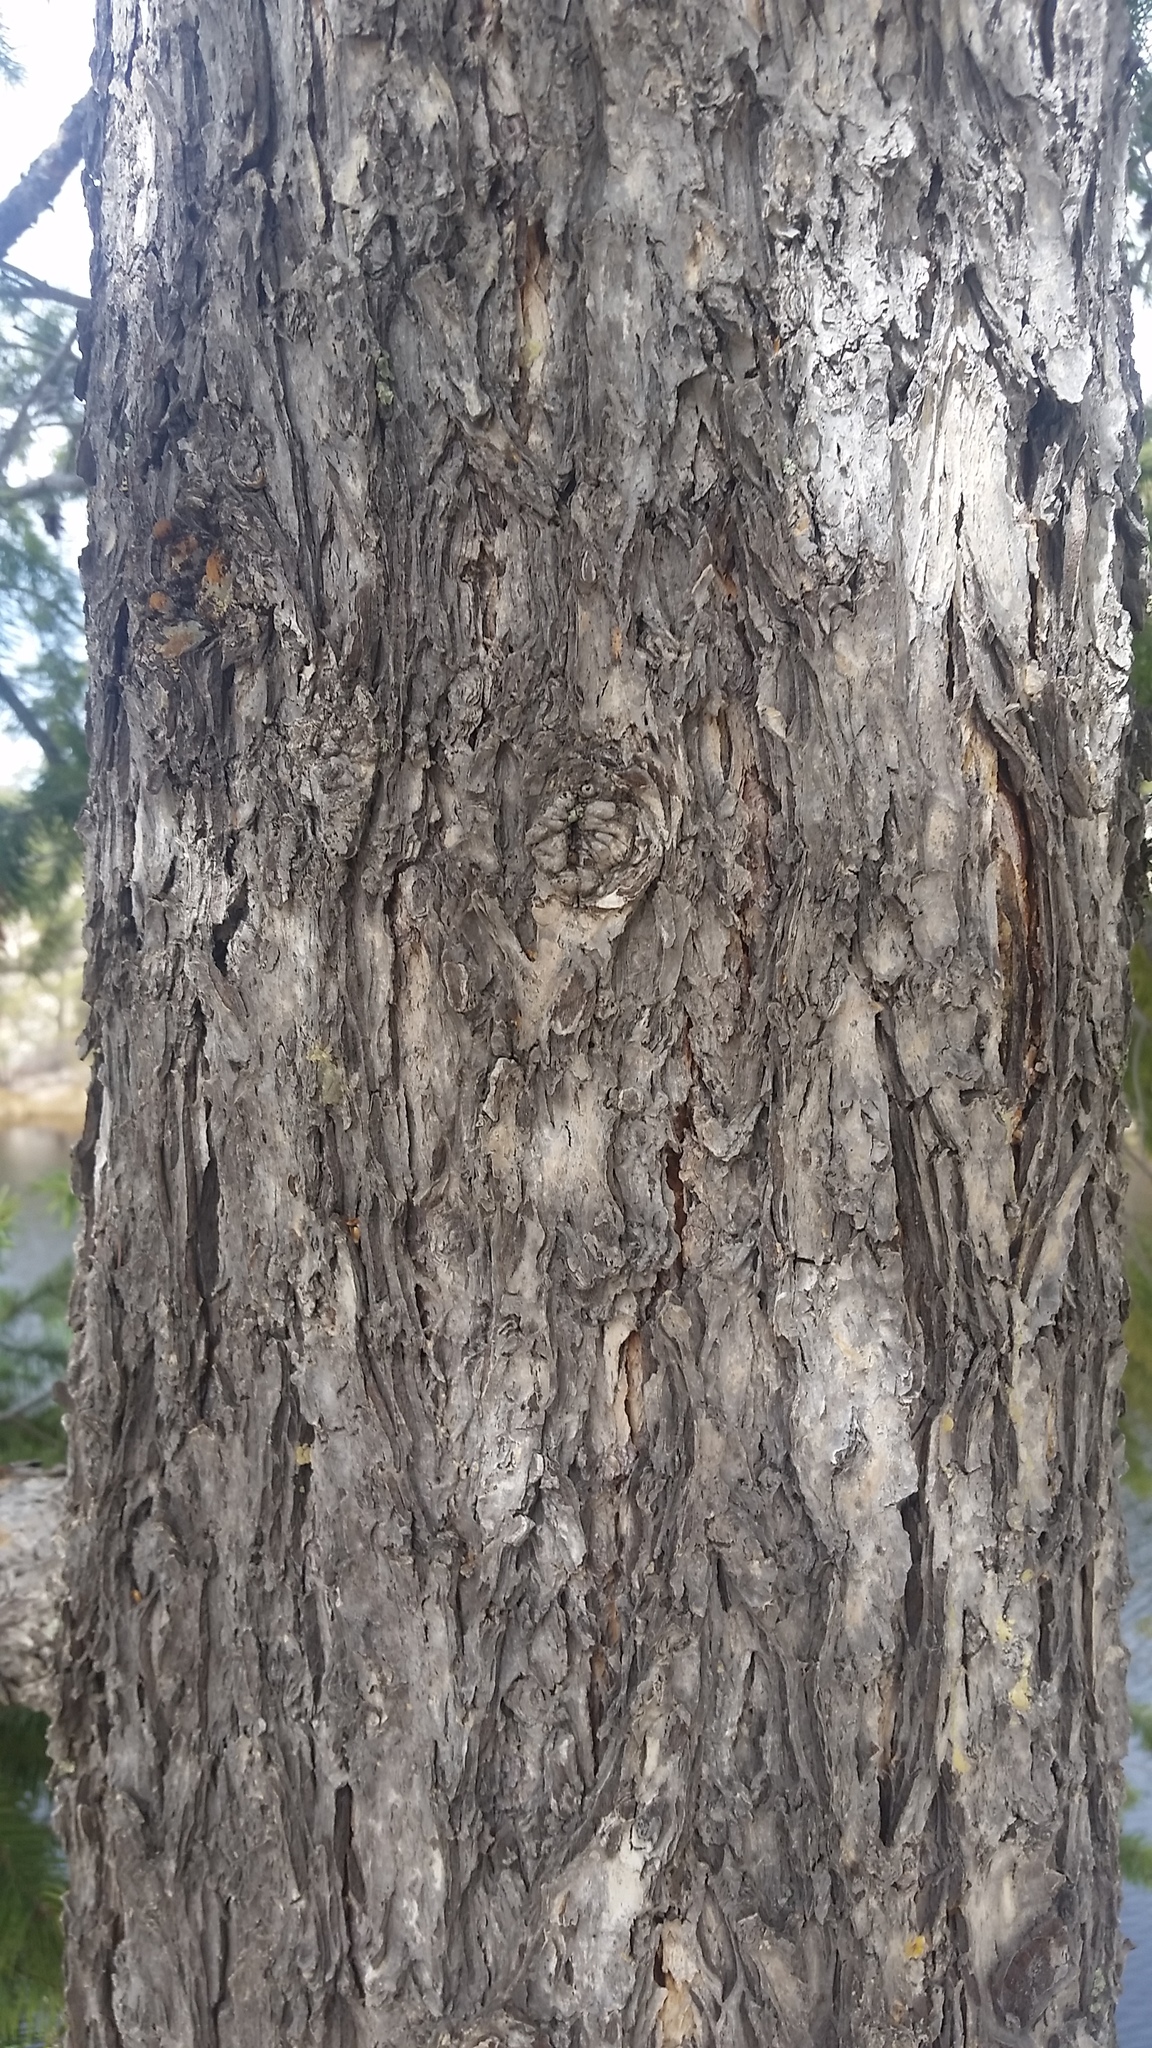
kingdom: Plantae
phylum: Tracheophyta
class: Pinopsida
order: Pinales
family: Pinaceae
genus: Pseudotsuga
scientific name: Pseudotsuga menziesii
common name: Douglas fir
